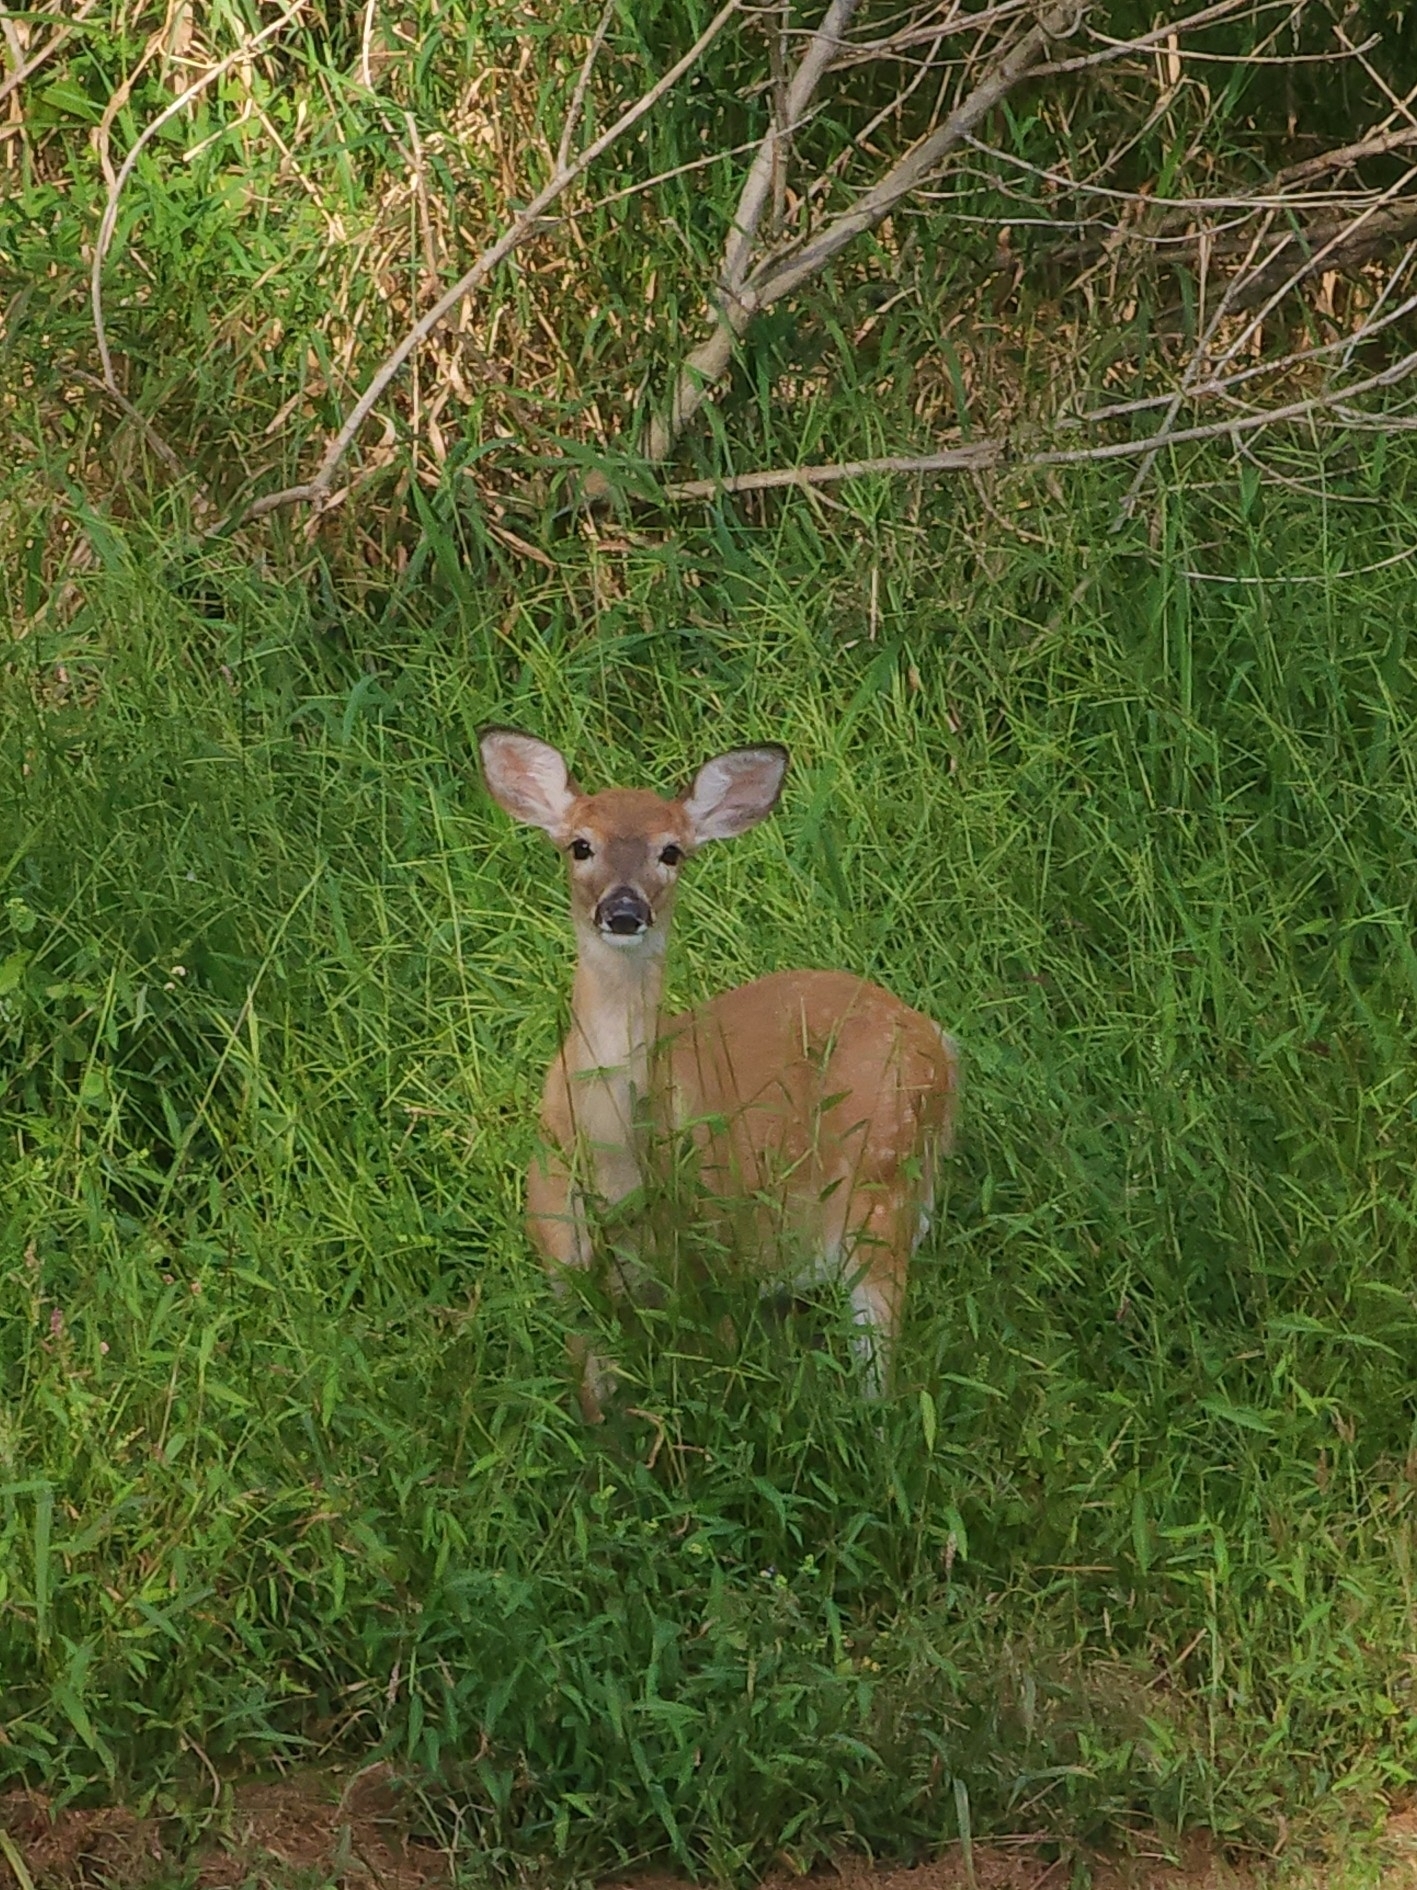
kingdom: Animalia
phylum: Chordata
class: Mammalia
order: Artiodactyla
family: Cervidae
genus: Odocoileus
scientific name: Odocoileus virginianus
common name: White-tailed deer
